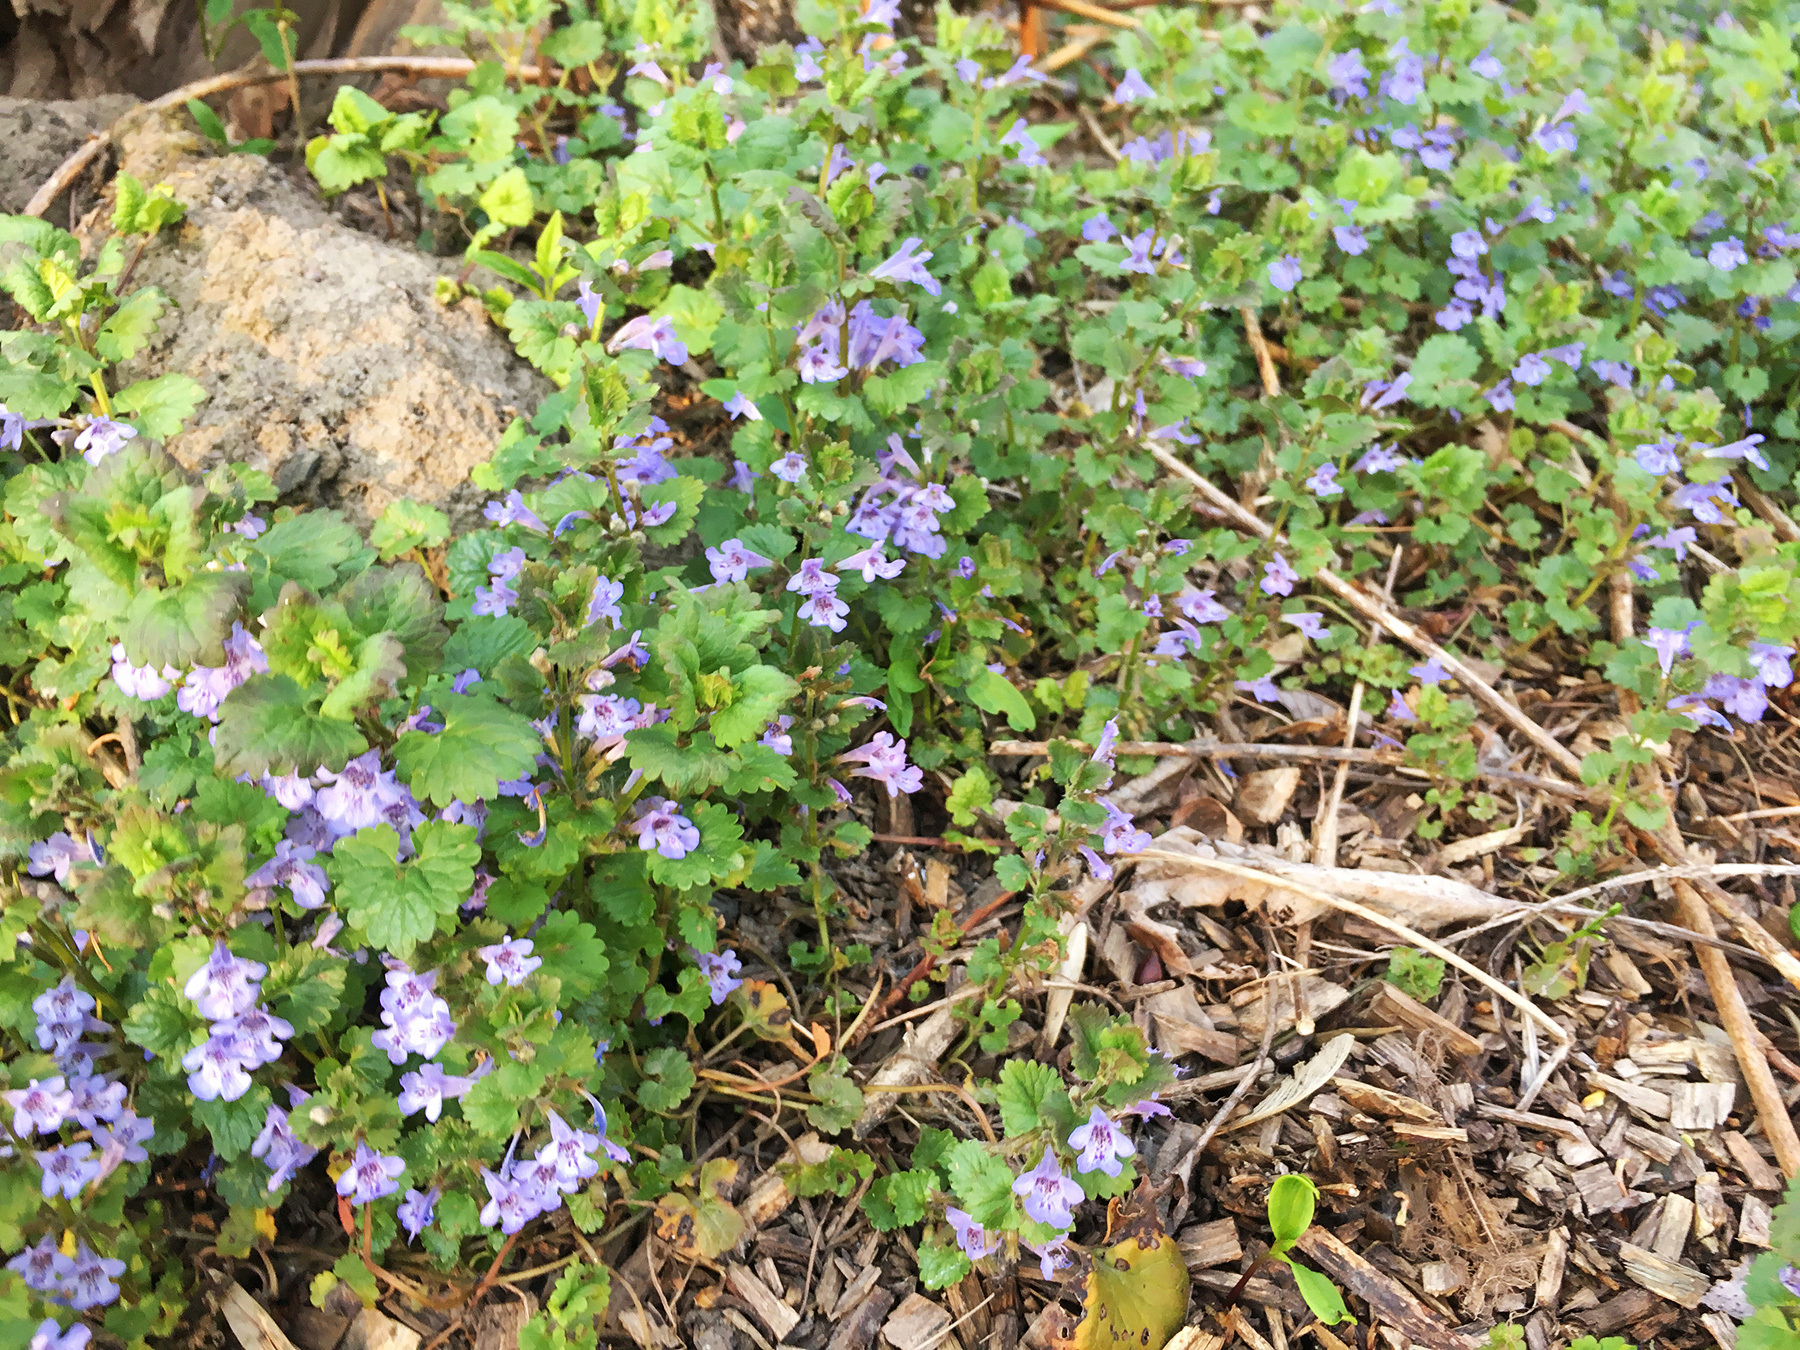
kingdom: Plantae
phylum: Tracheophyta
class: Magnoliopsida
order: Lamiales
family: Lamiaceae
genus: Glechoma
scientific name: Glechoma hederacea
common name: Ground ivy
